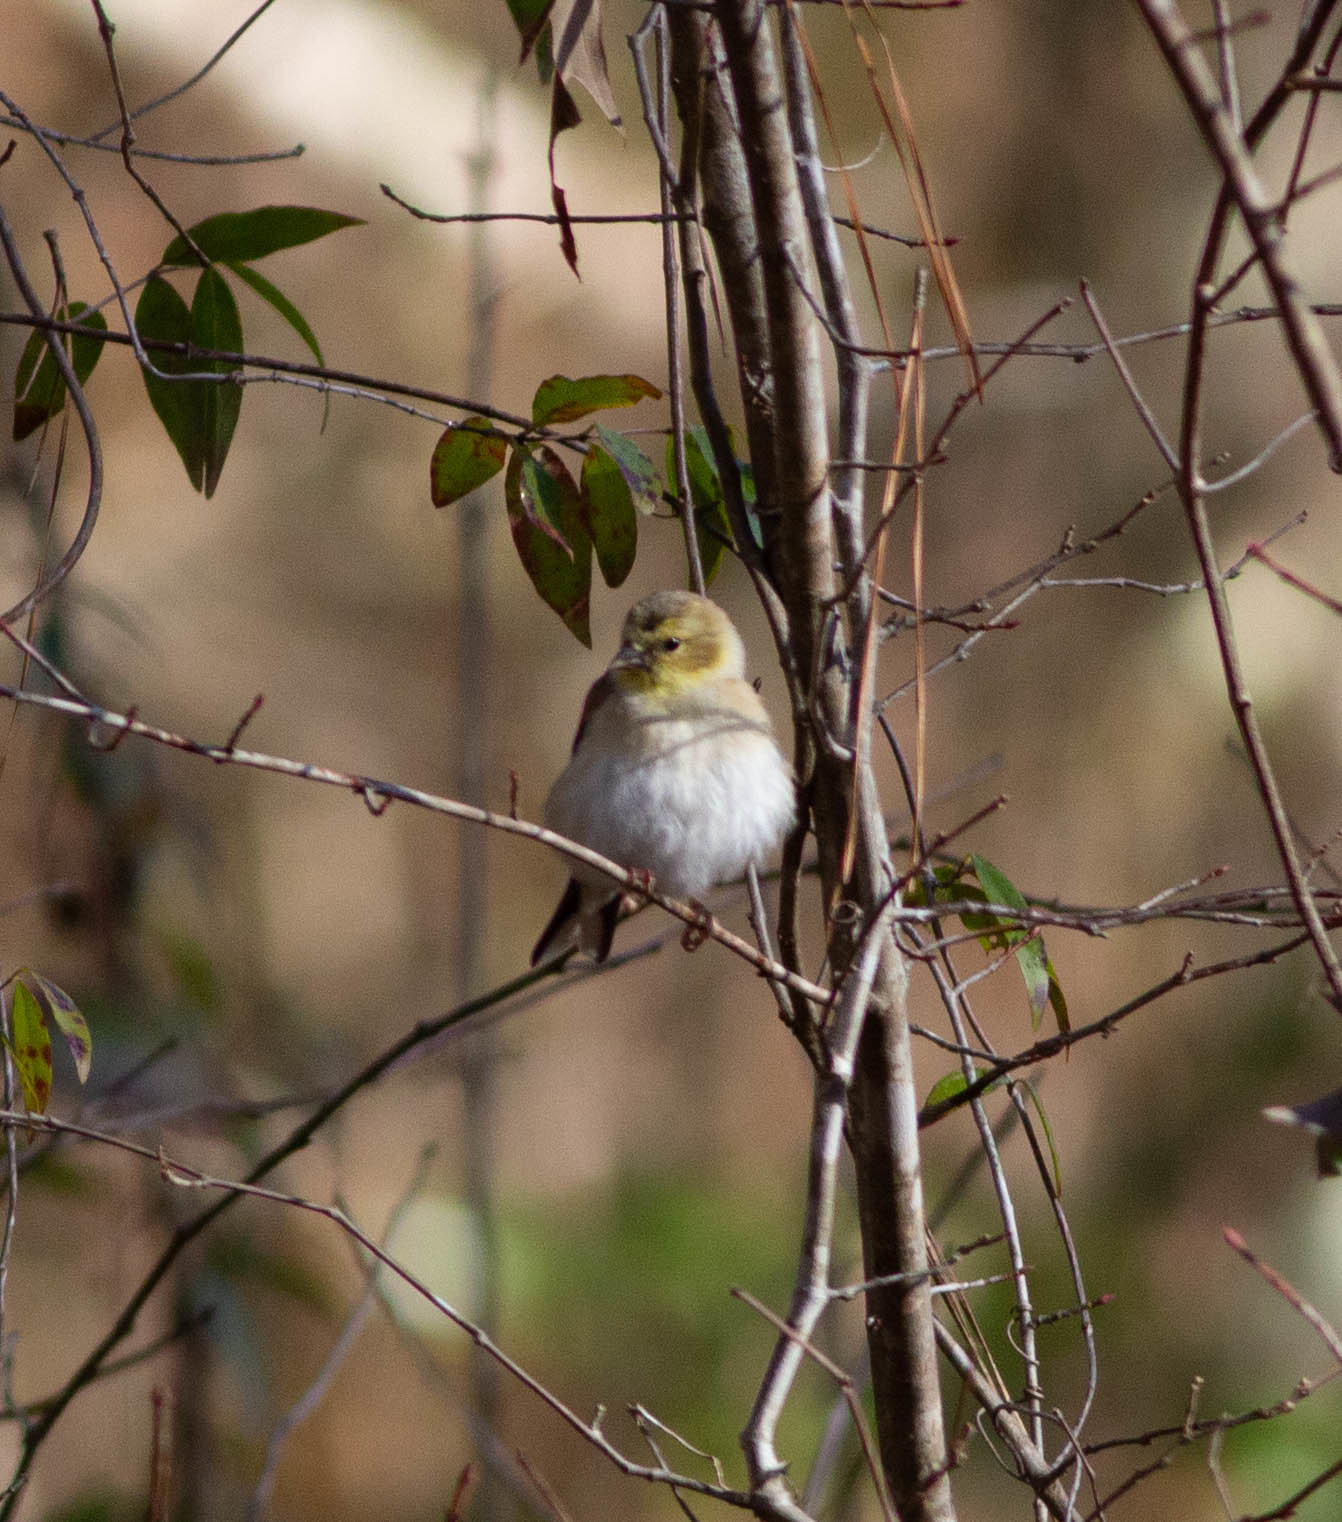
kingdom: Animalia
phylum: Chordata
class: Aves
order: Passeriformes
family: Fringillidae
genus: Spinus
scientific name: Spinus tristis
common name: American goldfinch
